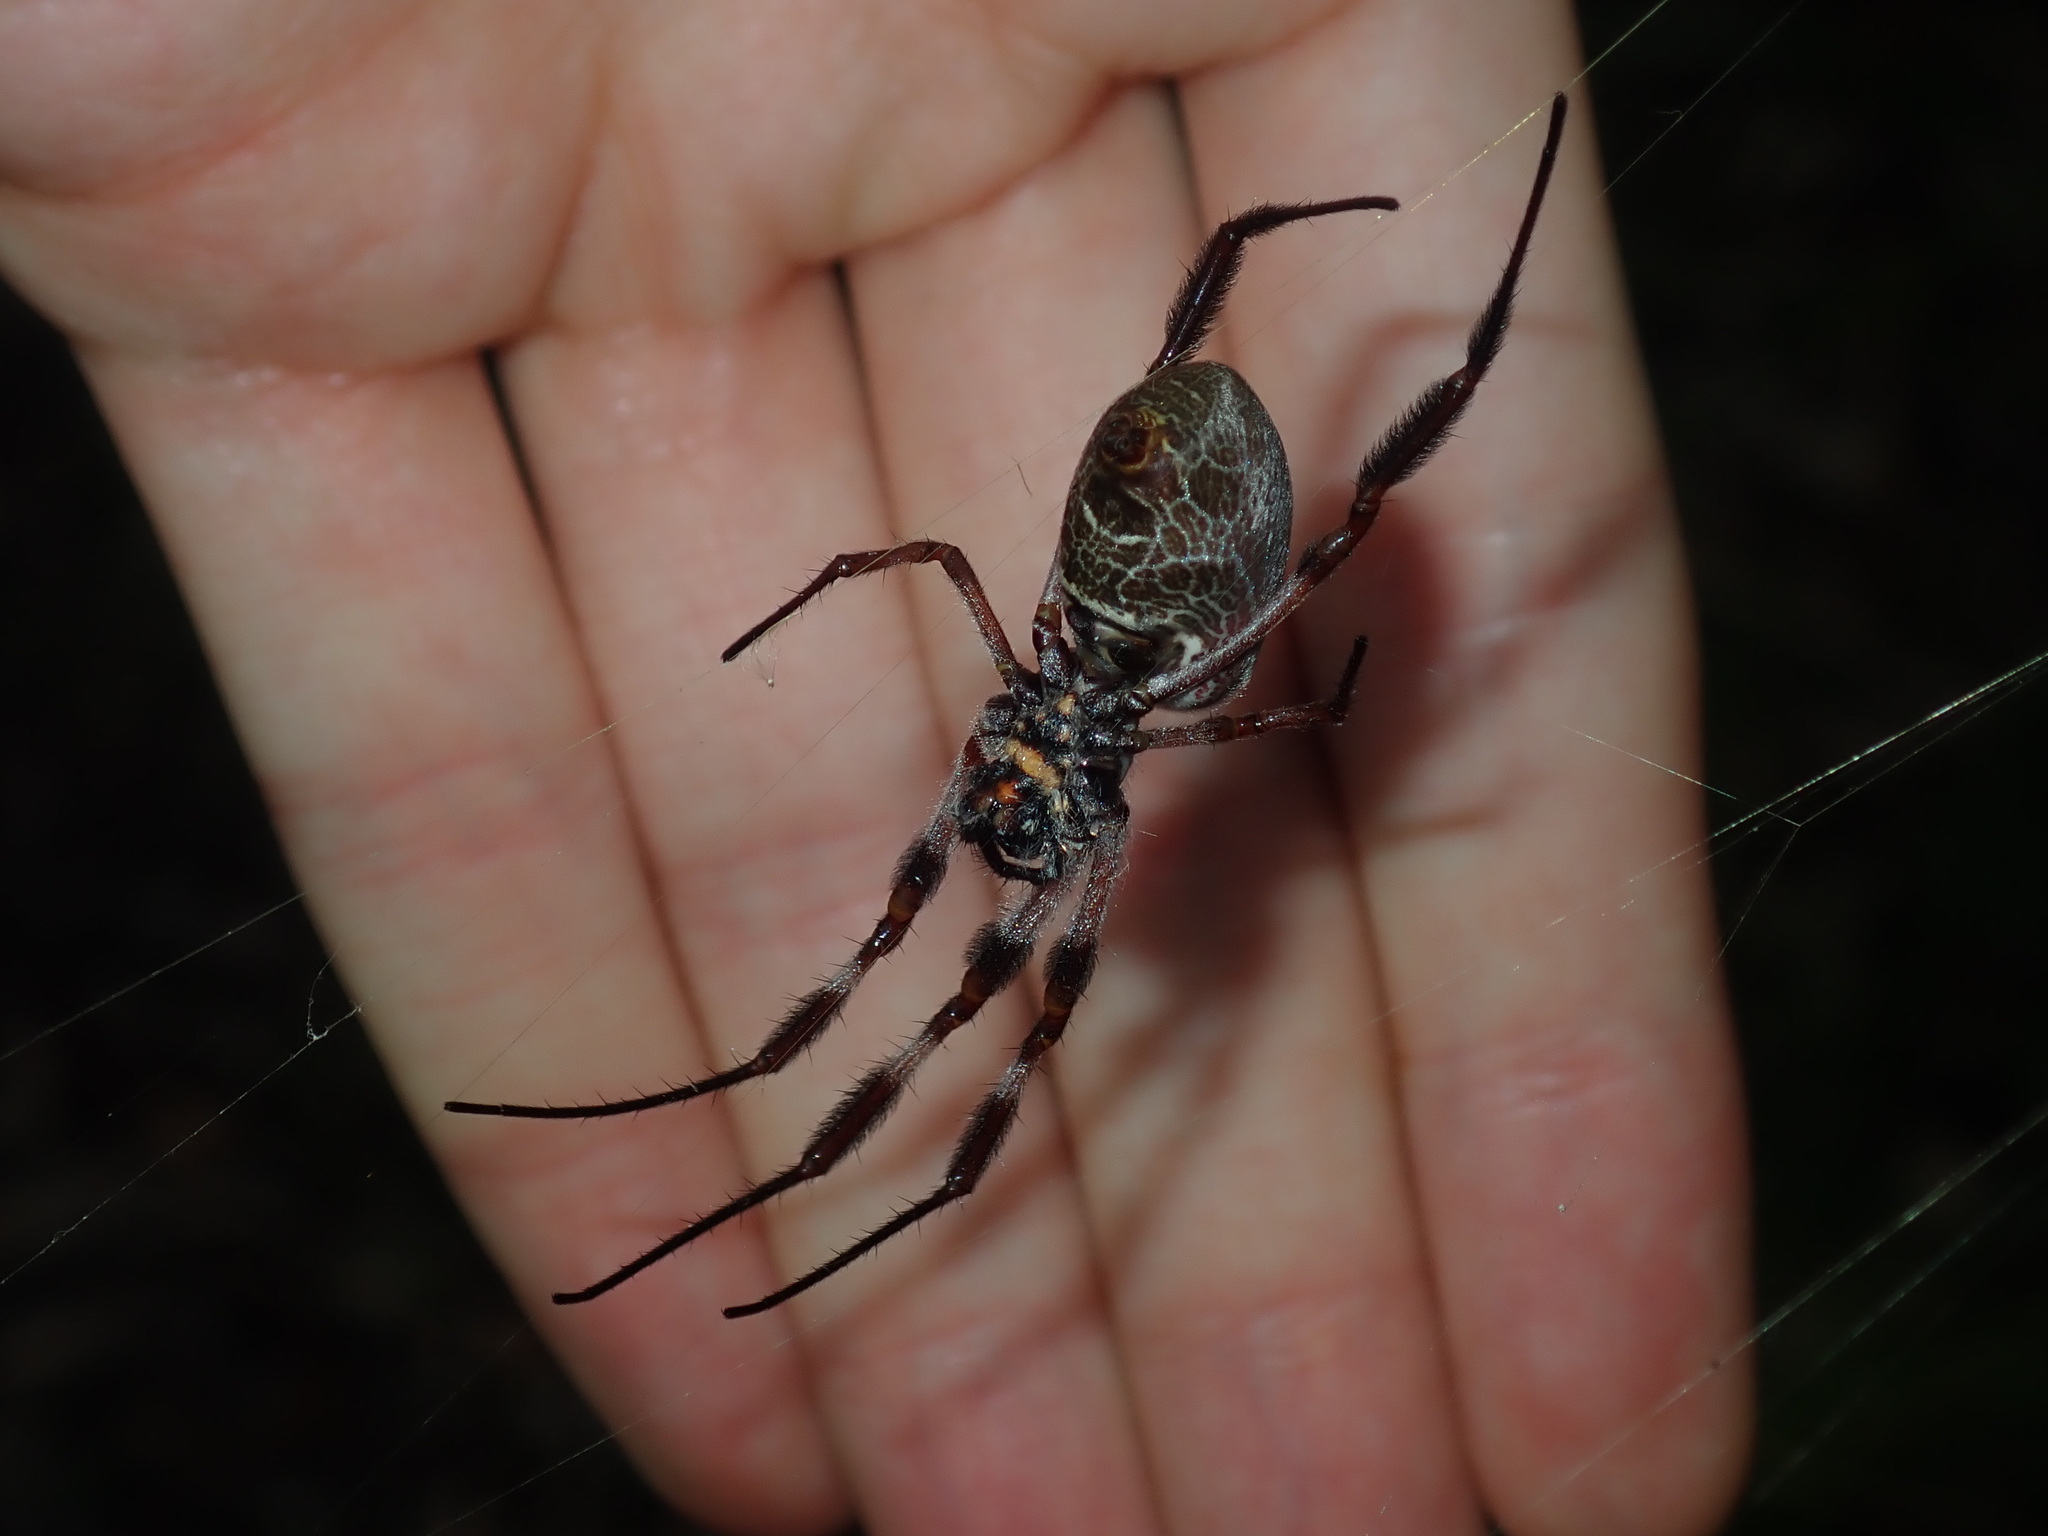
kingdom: Animalia
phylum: Arthropoda
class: Arachnida
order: Araneae
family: Araneidae
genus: Trichonephila
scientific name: Trichonephila edulis
